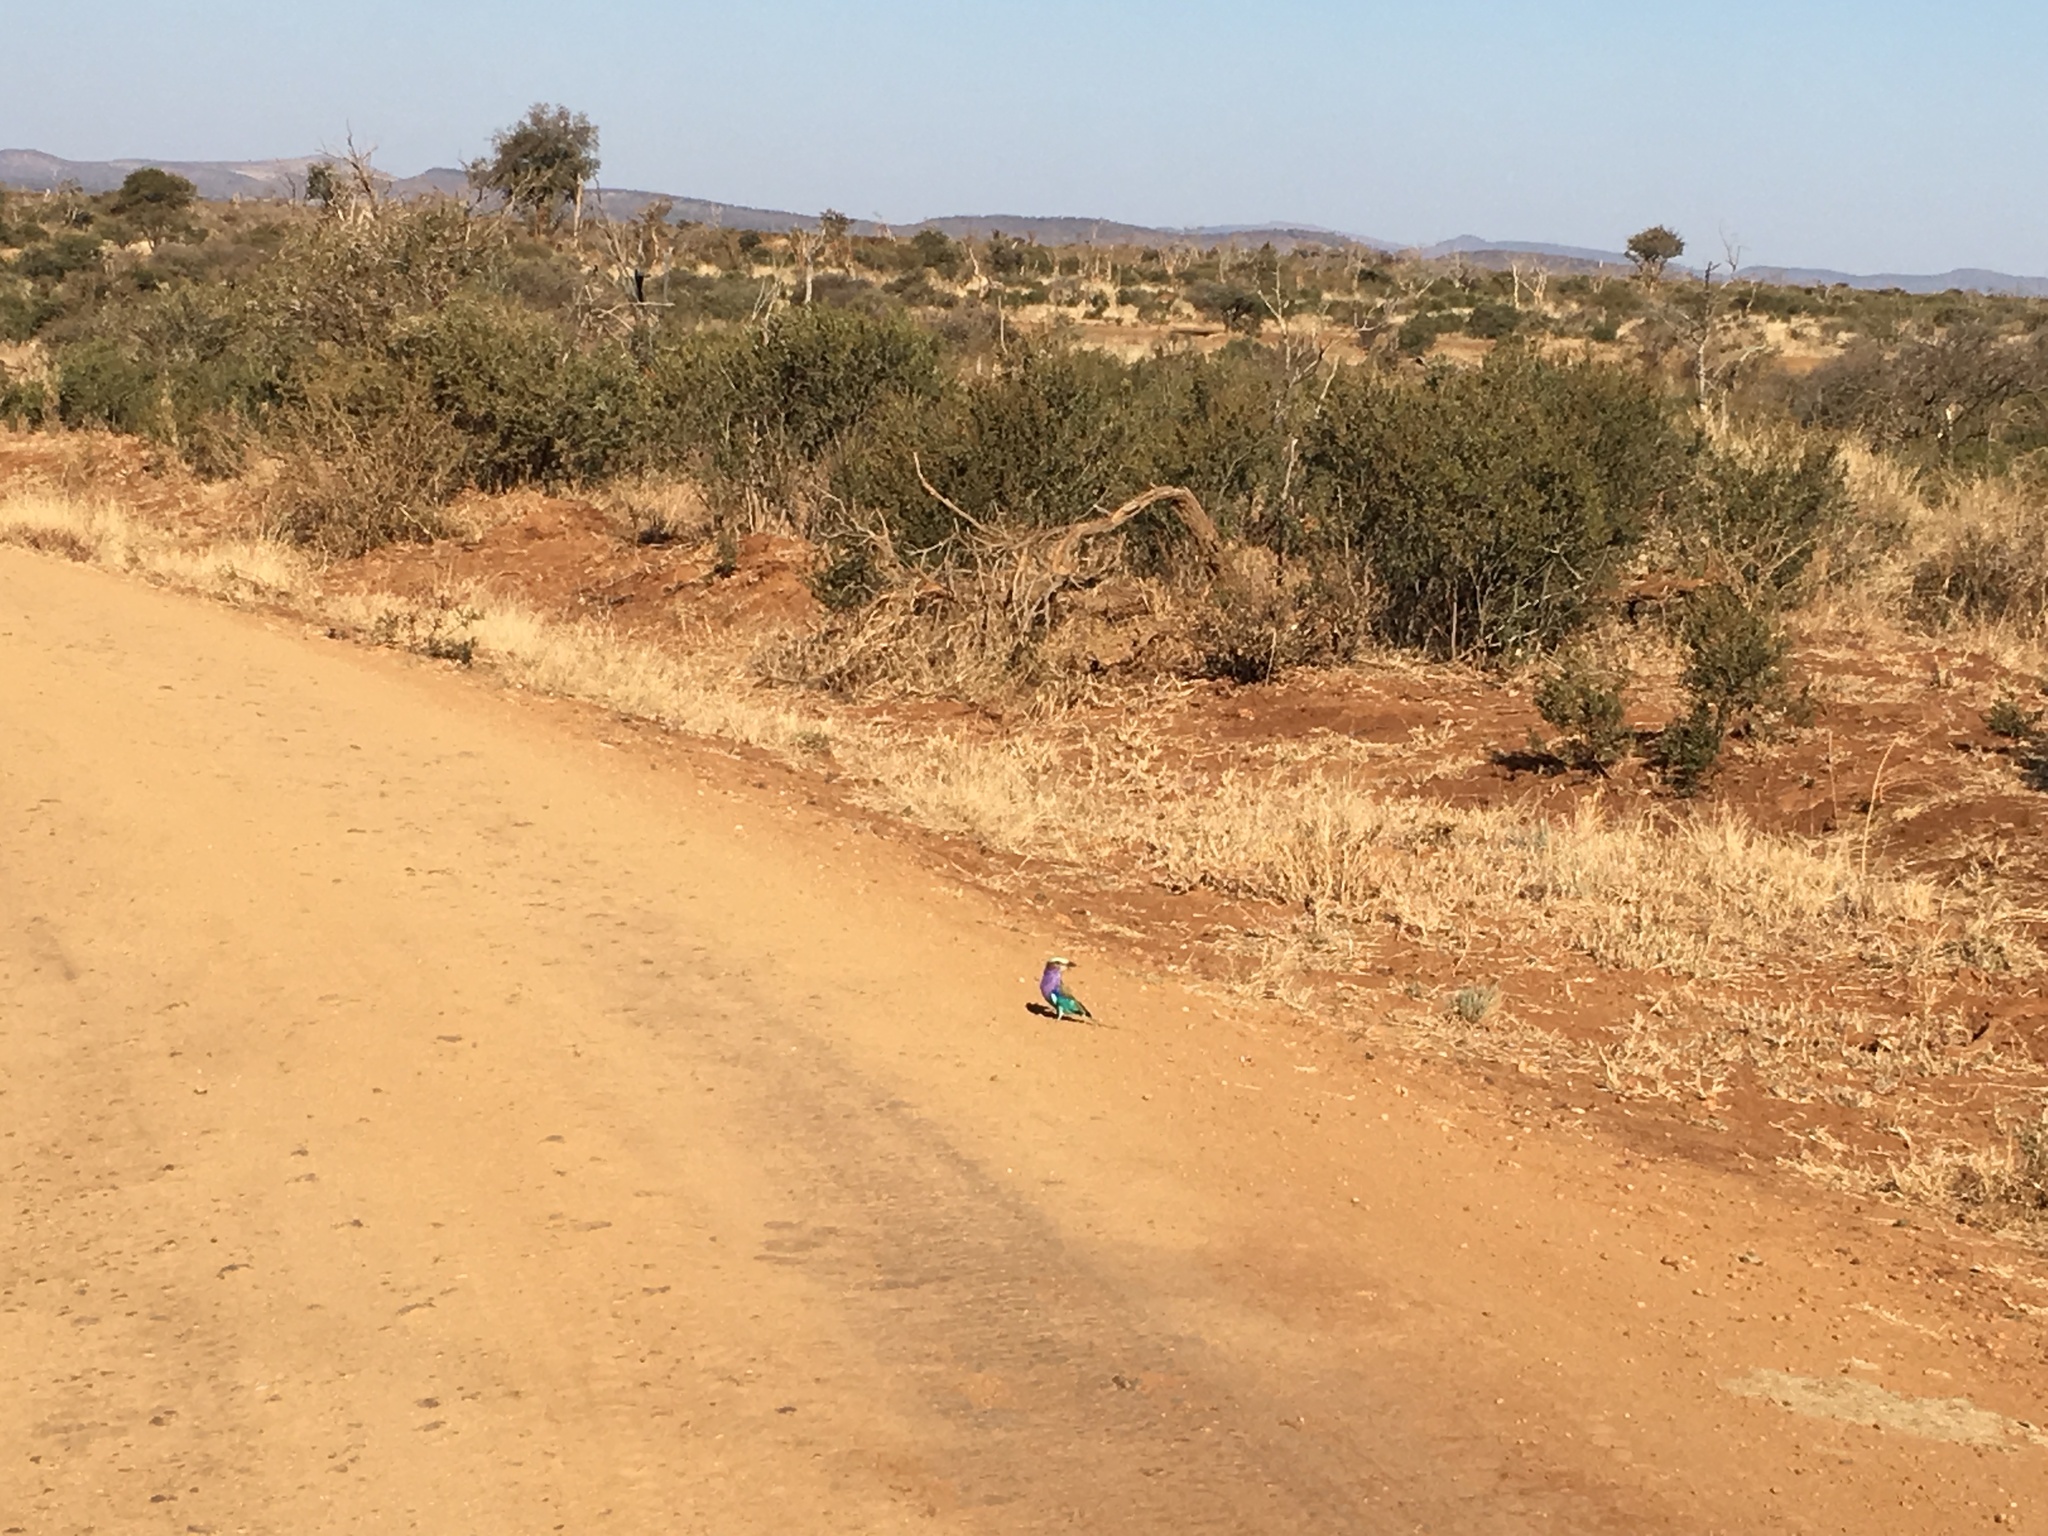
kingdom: Animalia
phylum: Chordata
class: Aves
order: Coraciiformes
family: Coraciidae
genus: Coracias
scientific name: Coracias caudatus
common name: Lilac-breasted roller
